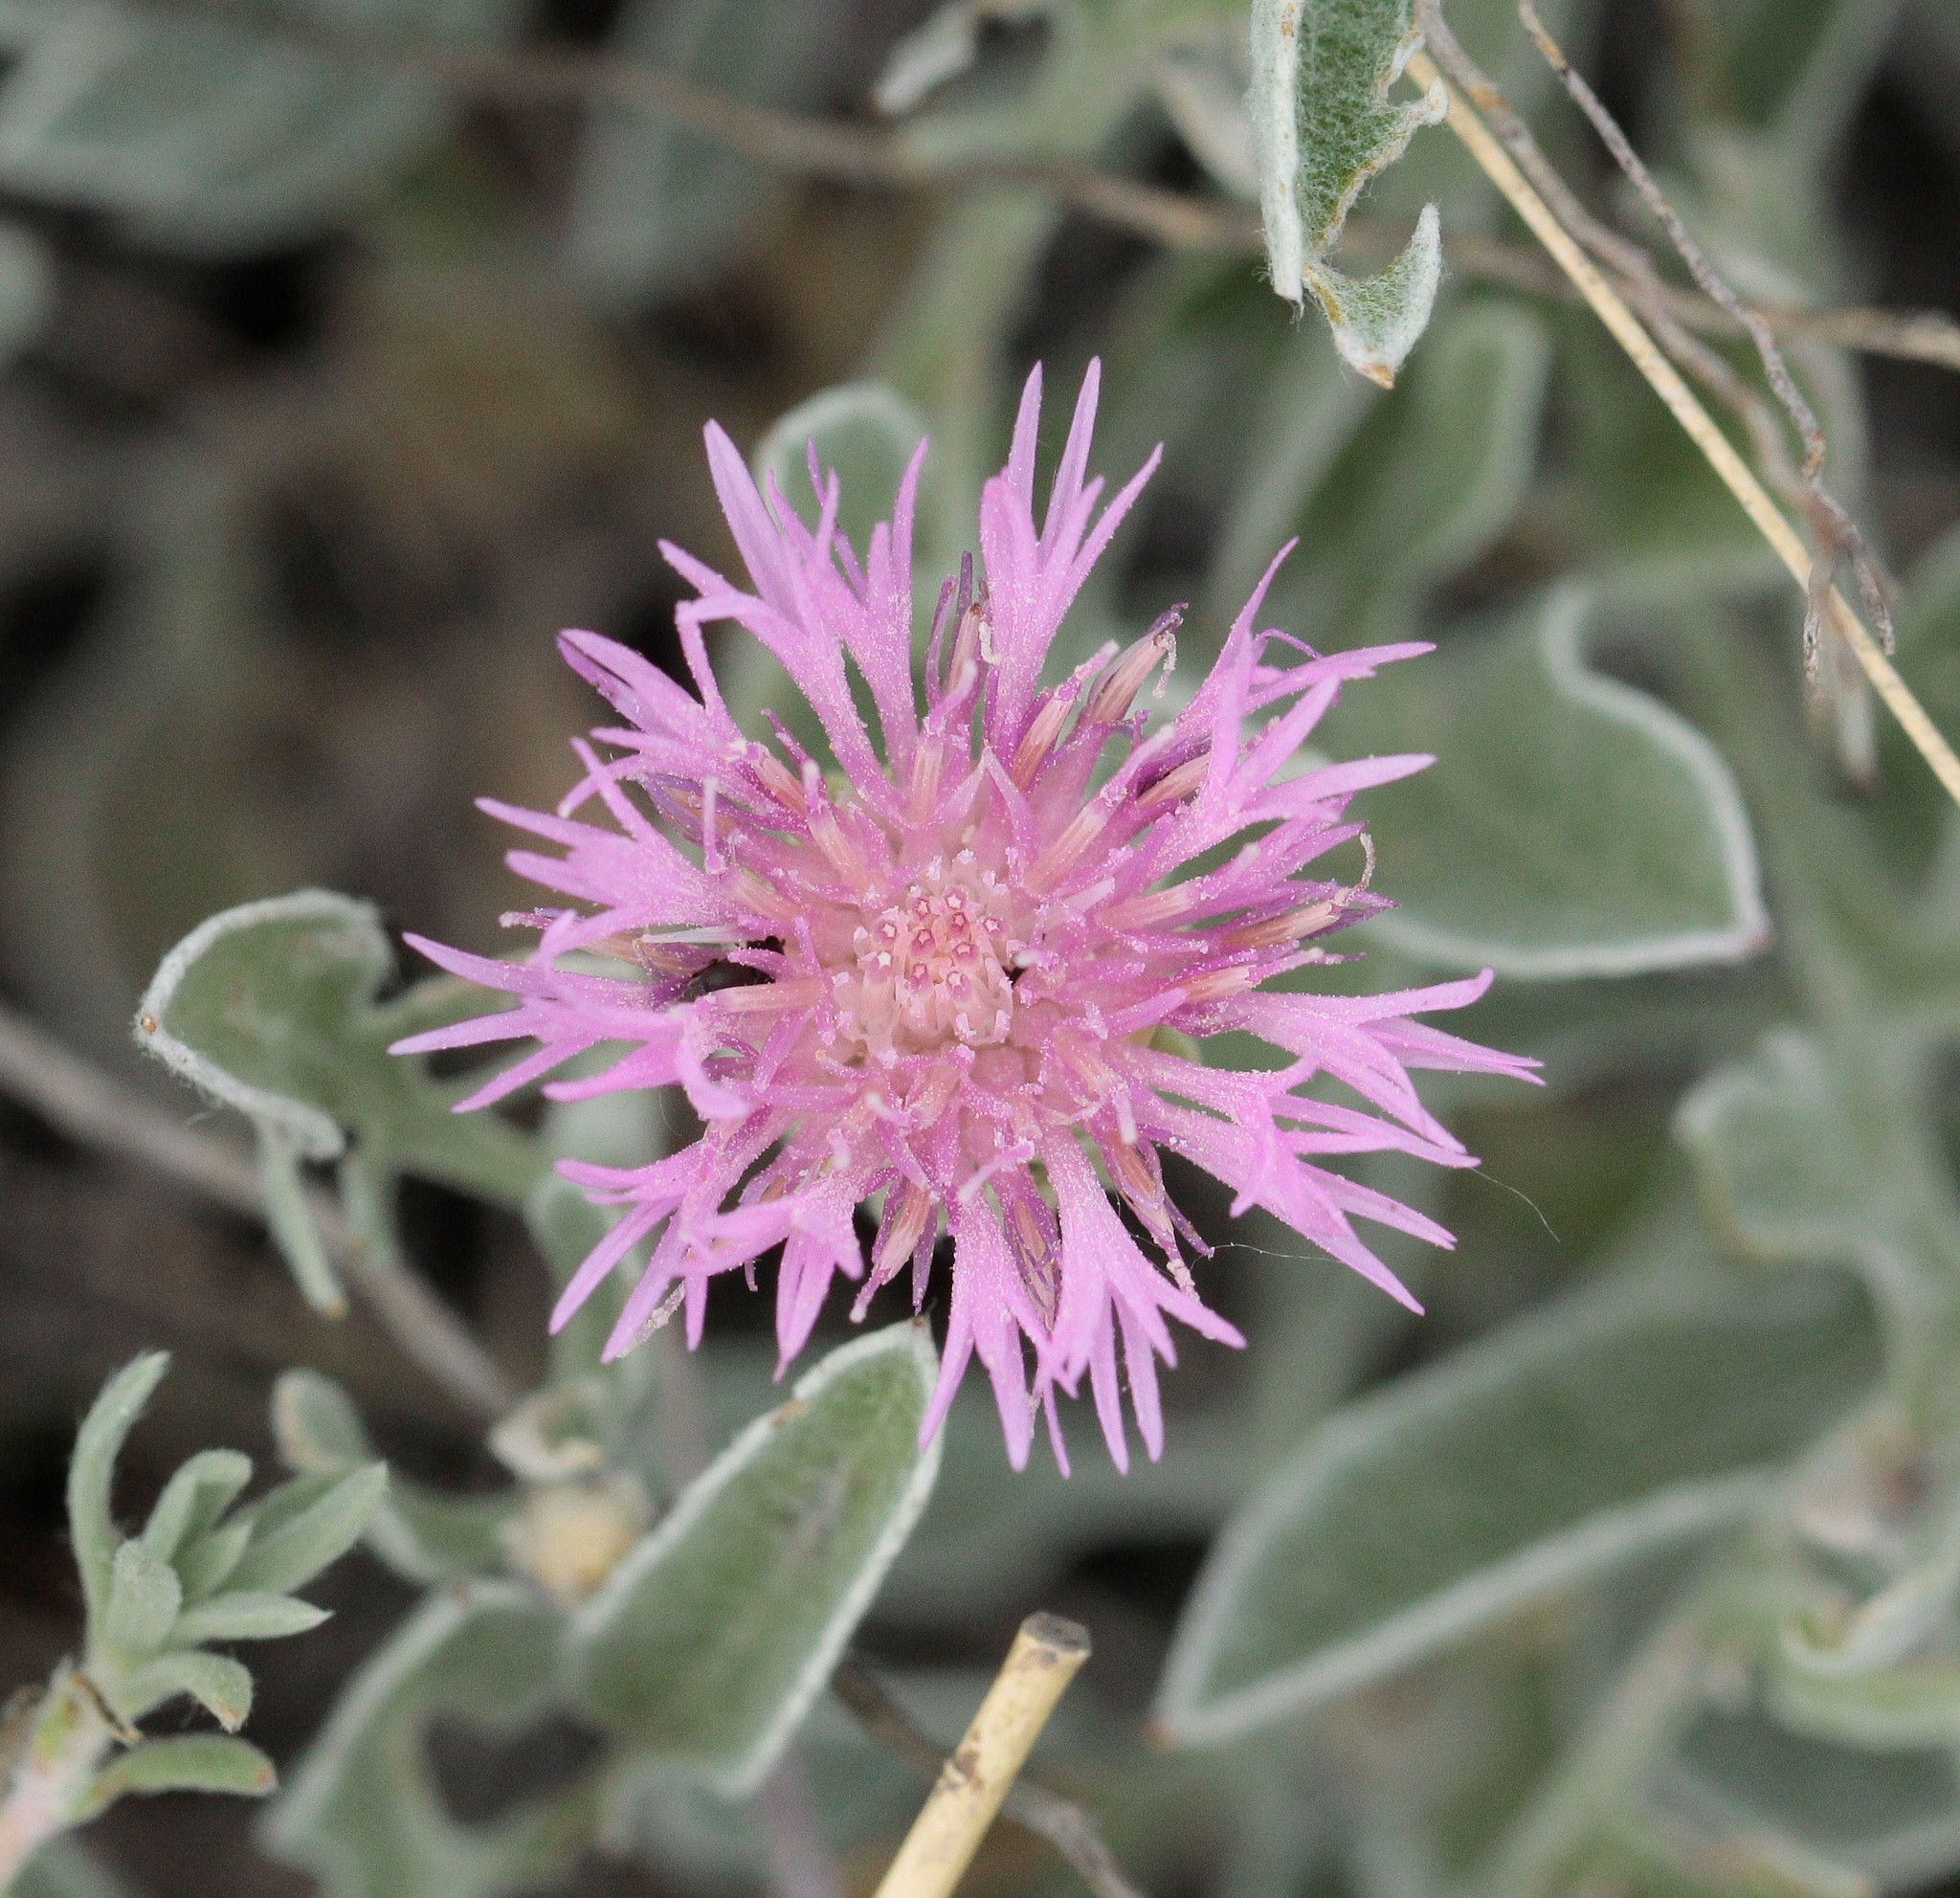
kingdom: Plantae
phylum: Tracheophyta
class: Magnoliopsida
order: Asterales
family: Asteraceae
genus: Psephellus
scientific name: Psephellus marschallianus
